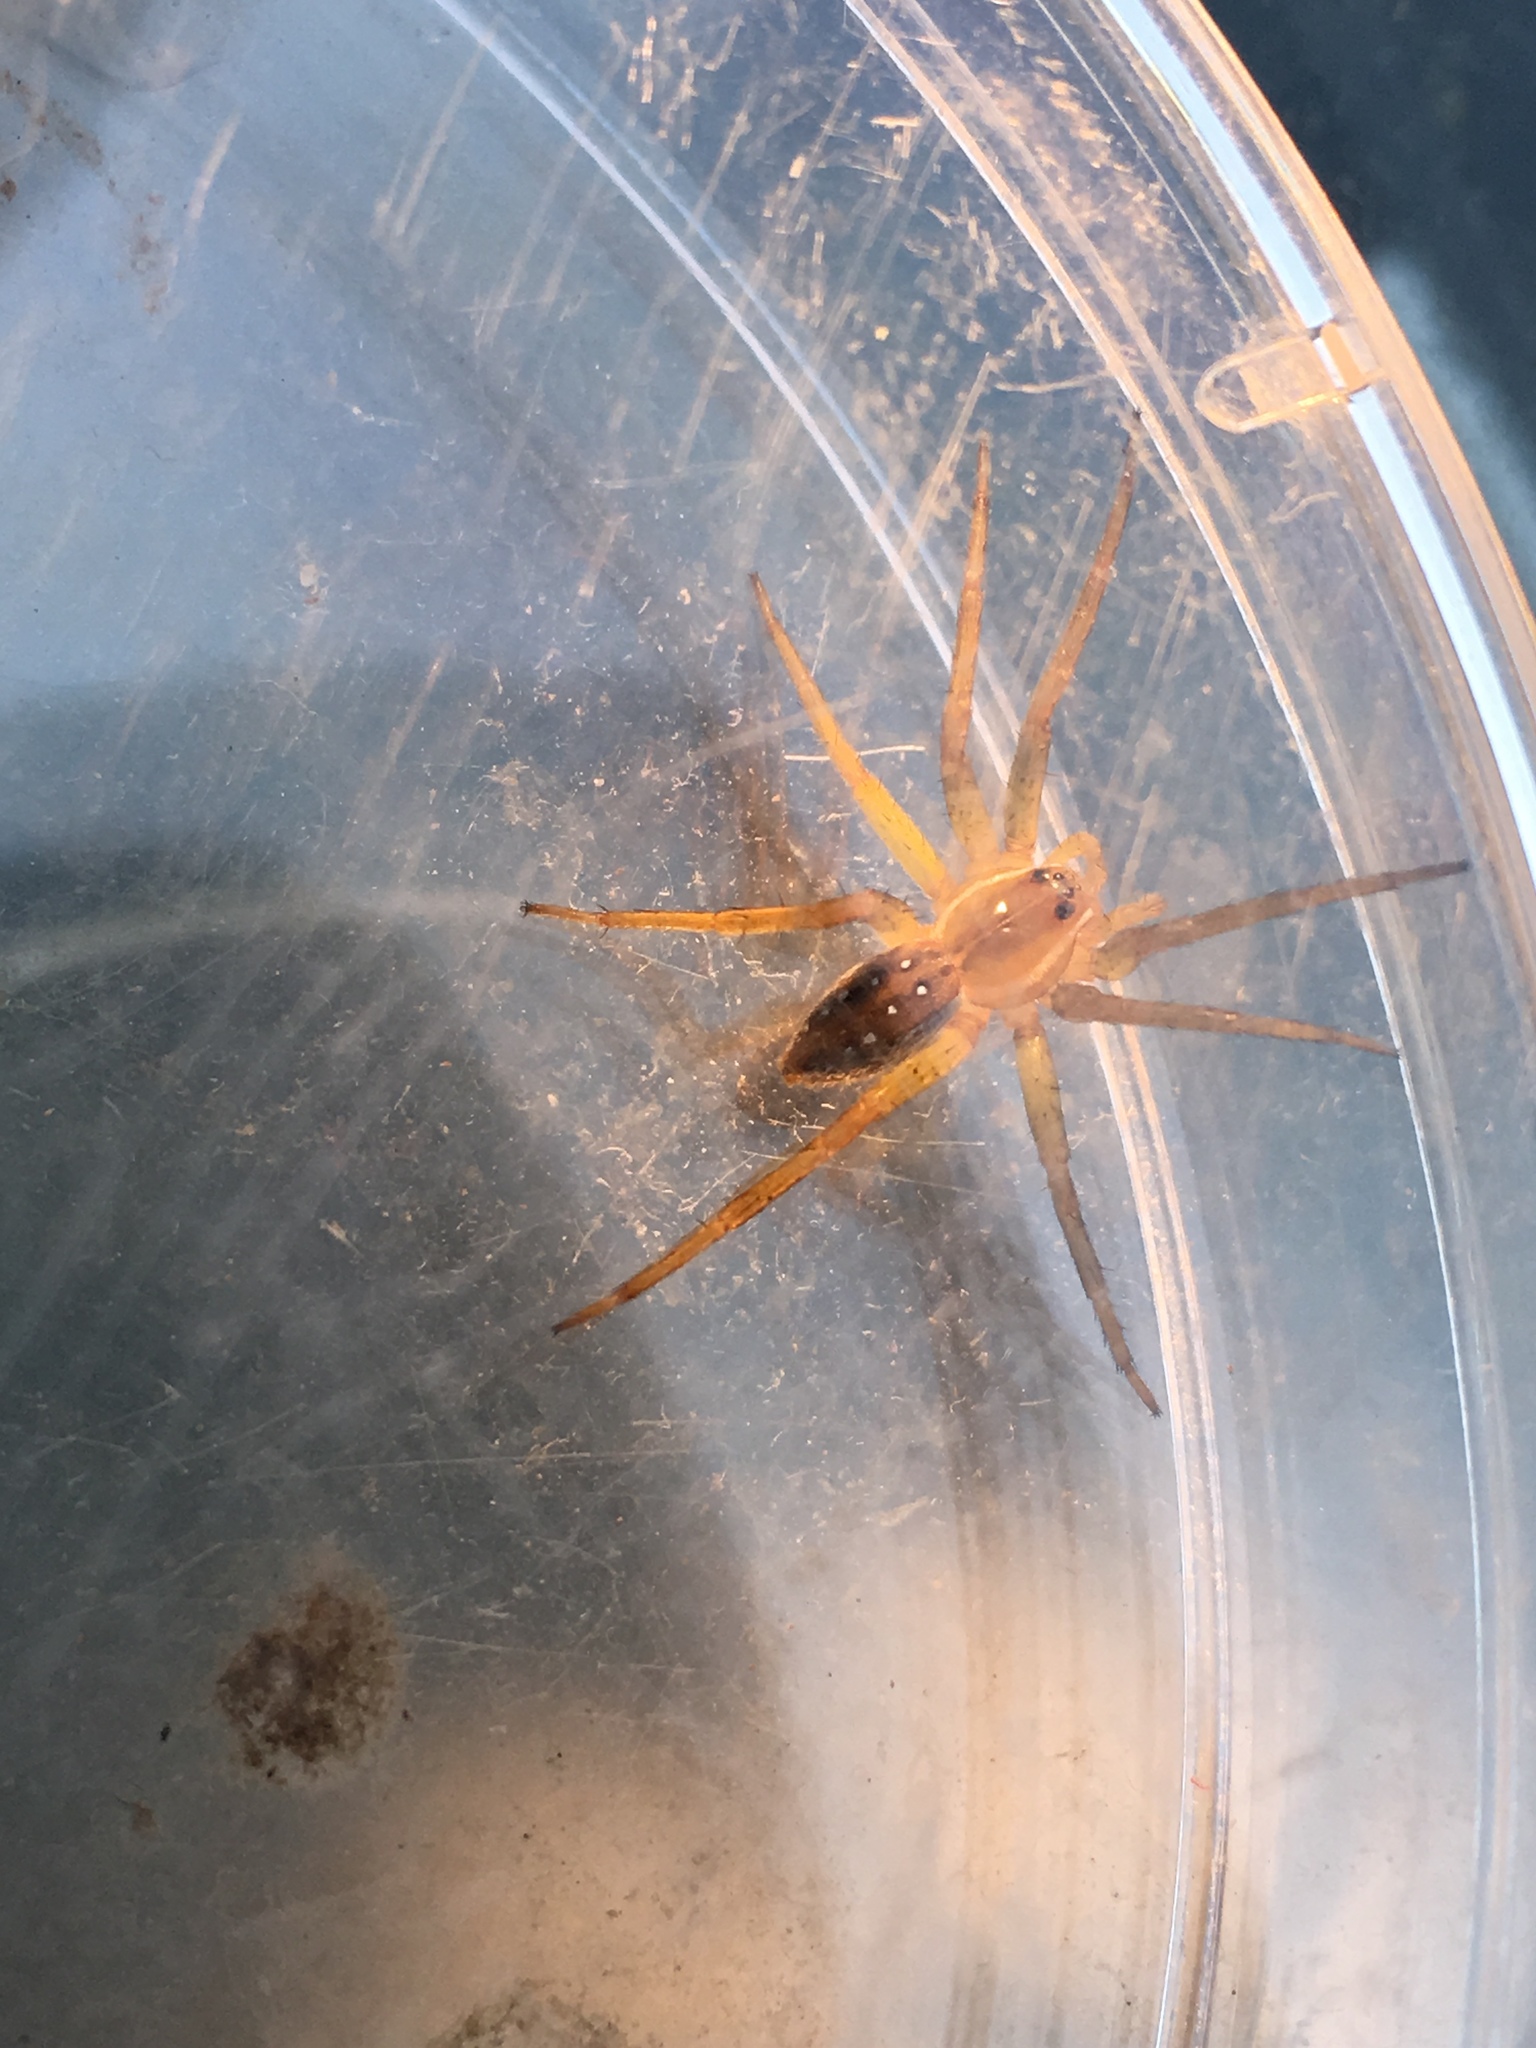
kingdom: Animalia
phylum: Arthropoda
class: Arachnida
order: Araneae
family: Pisauridae
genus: Dolomedes
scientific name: Dolomedes triton
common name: Six-spotted fishing spider
